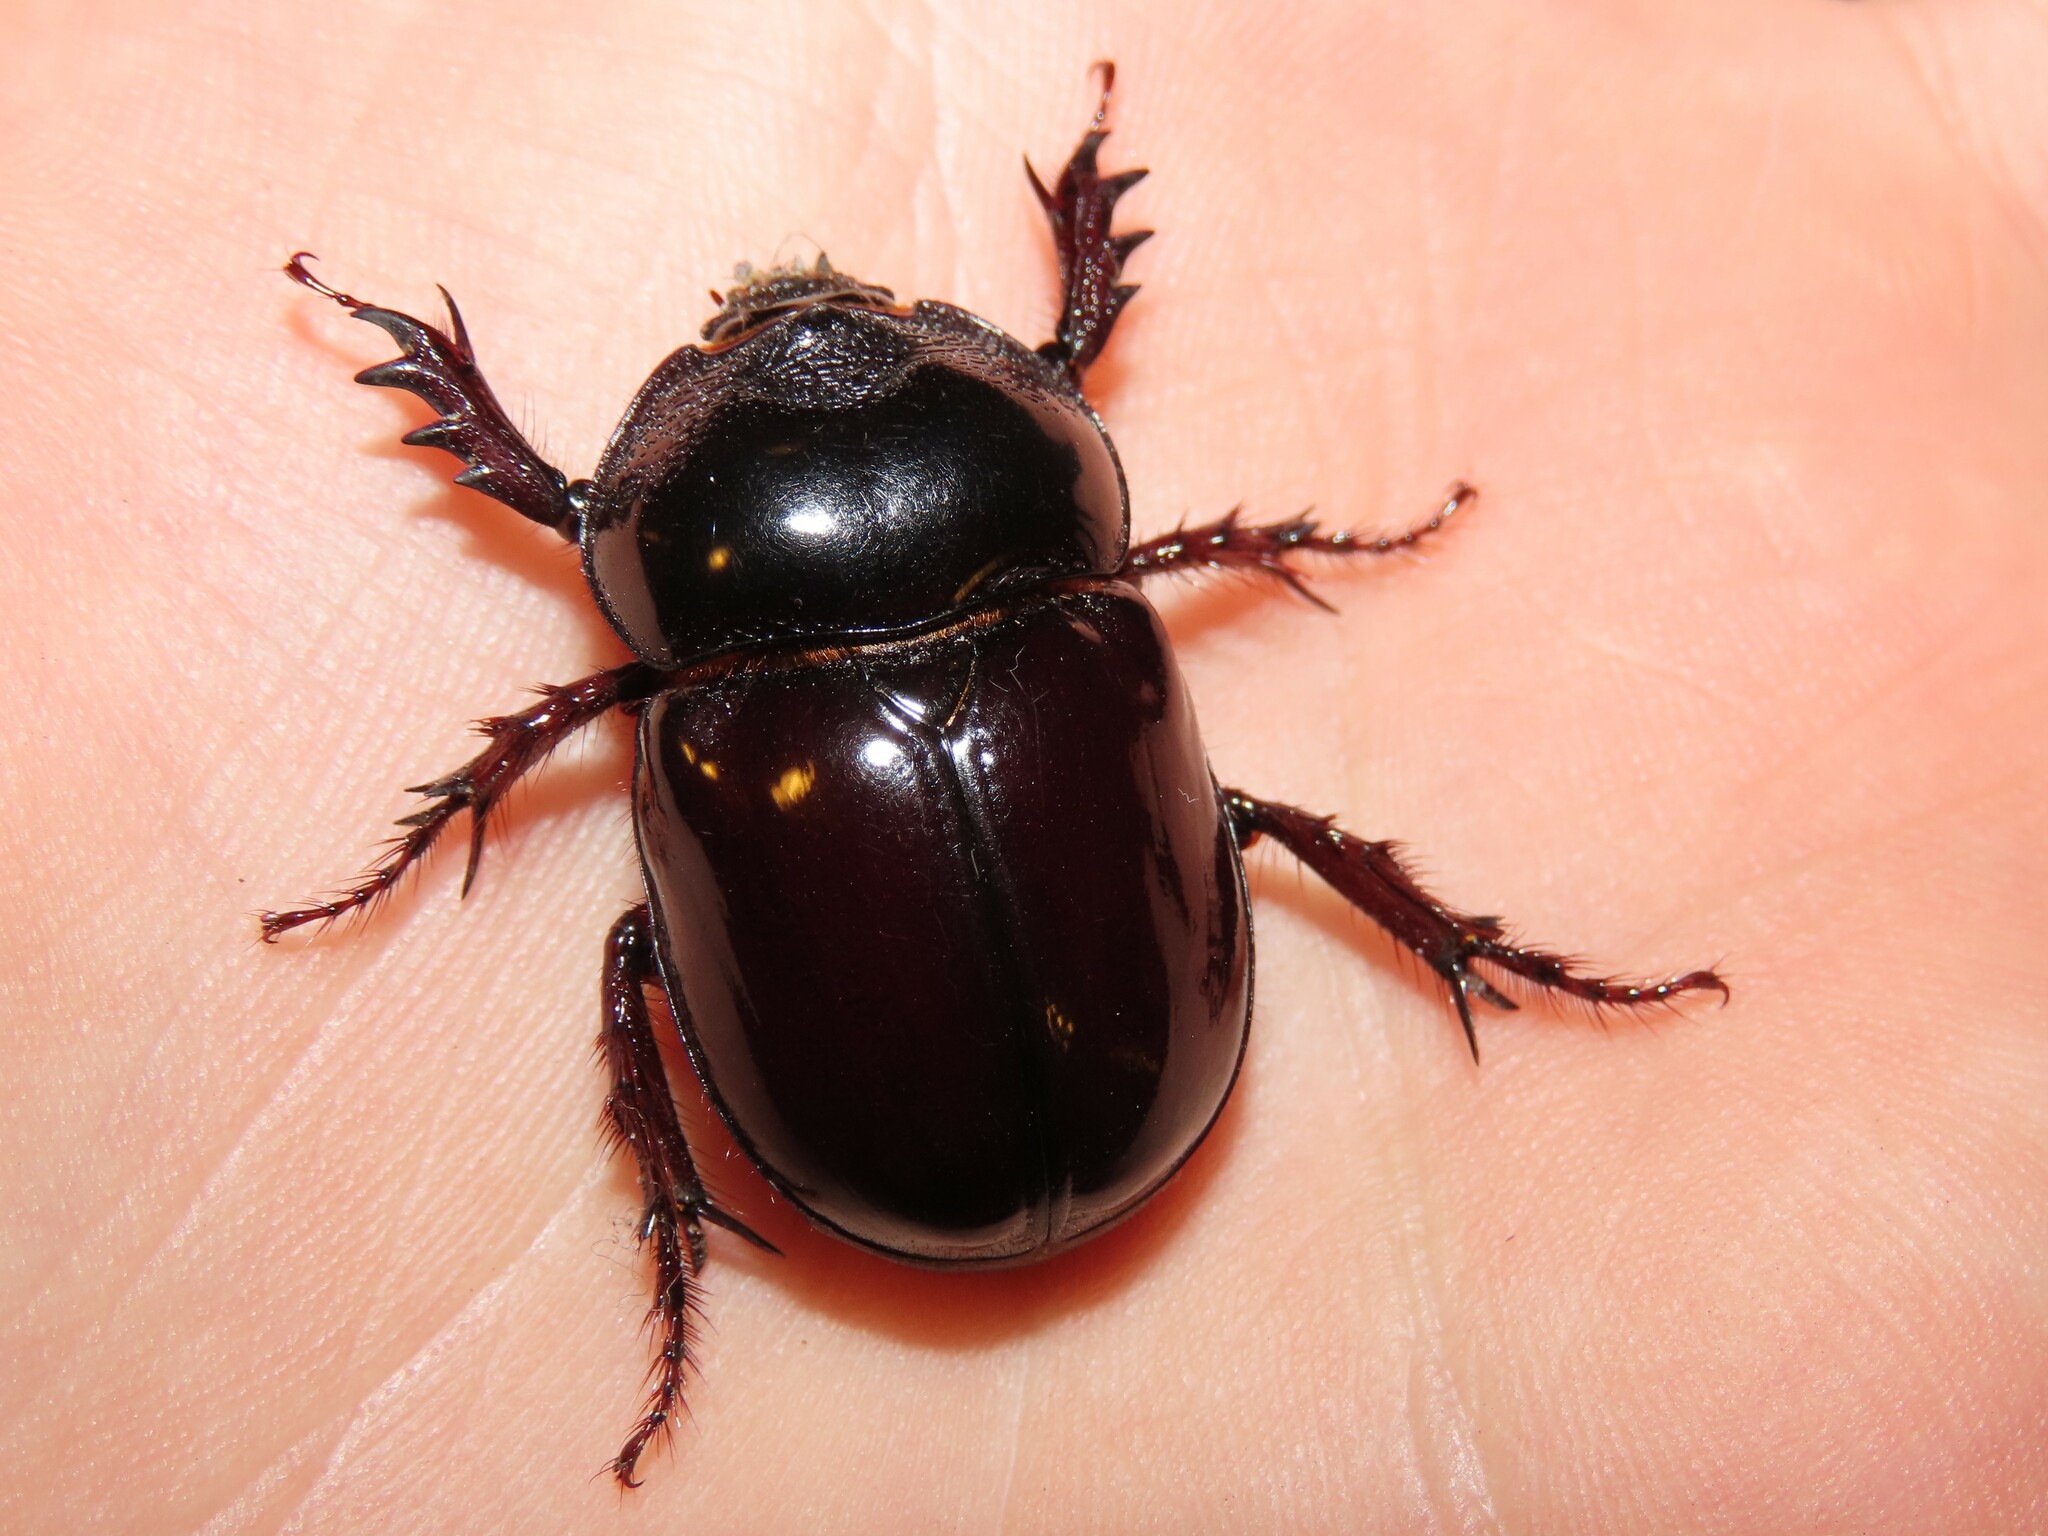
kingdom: Animalia
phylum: Arthropoda
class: Insecta
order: Coleoptera
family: Scarabaeidae
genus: Strategus
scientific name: Strategus antaeus
